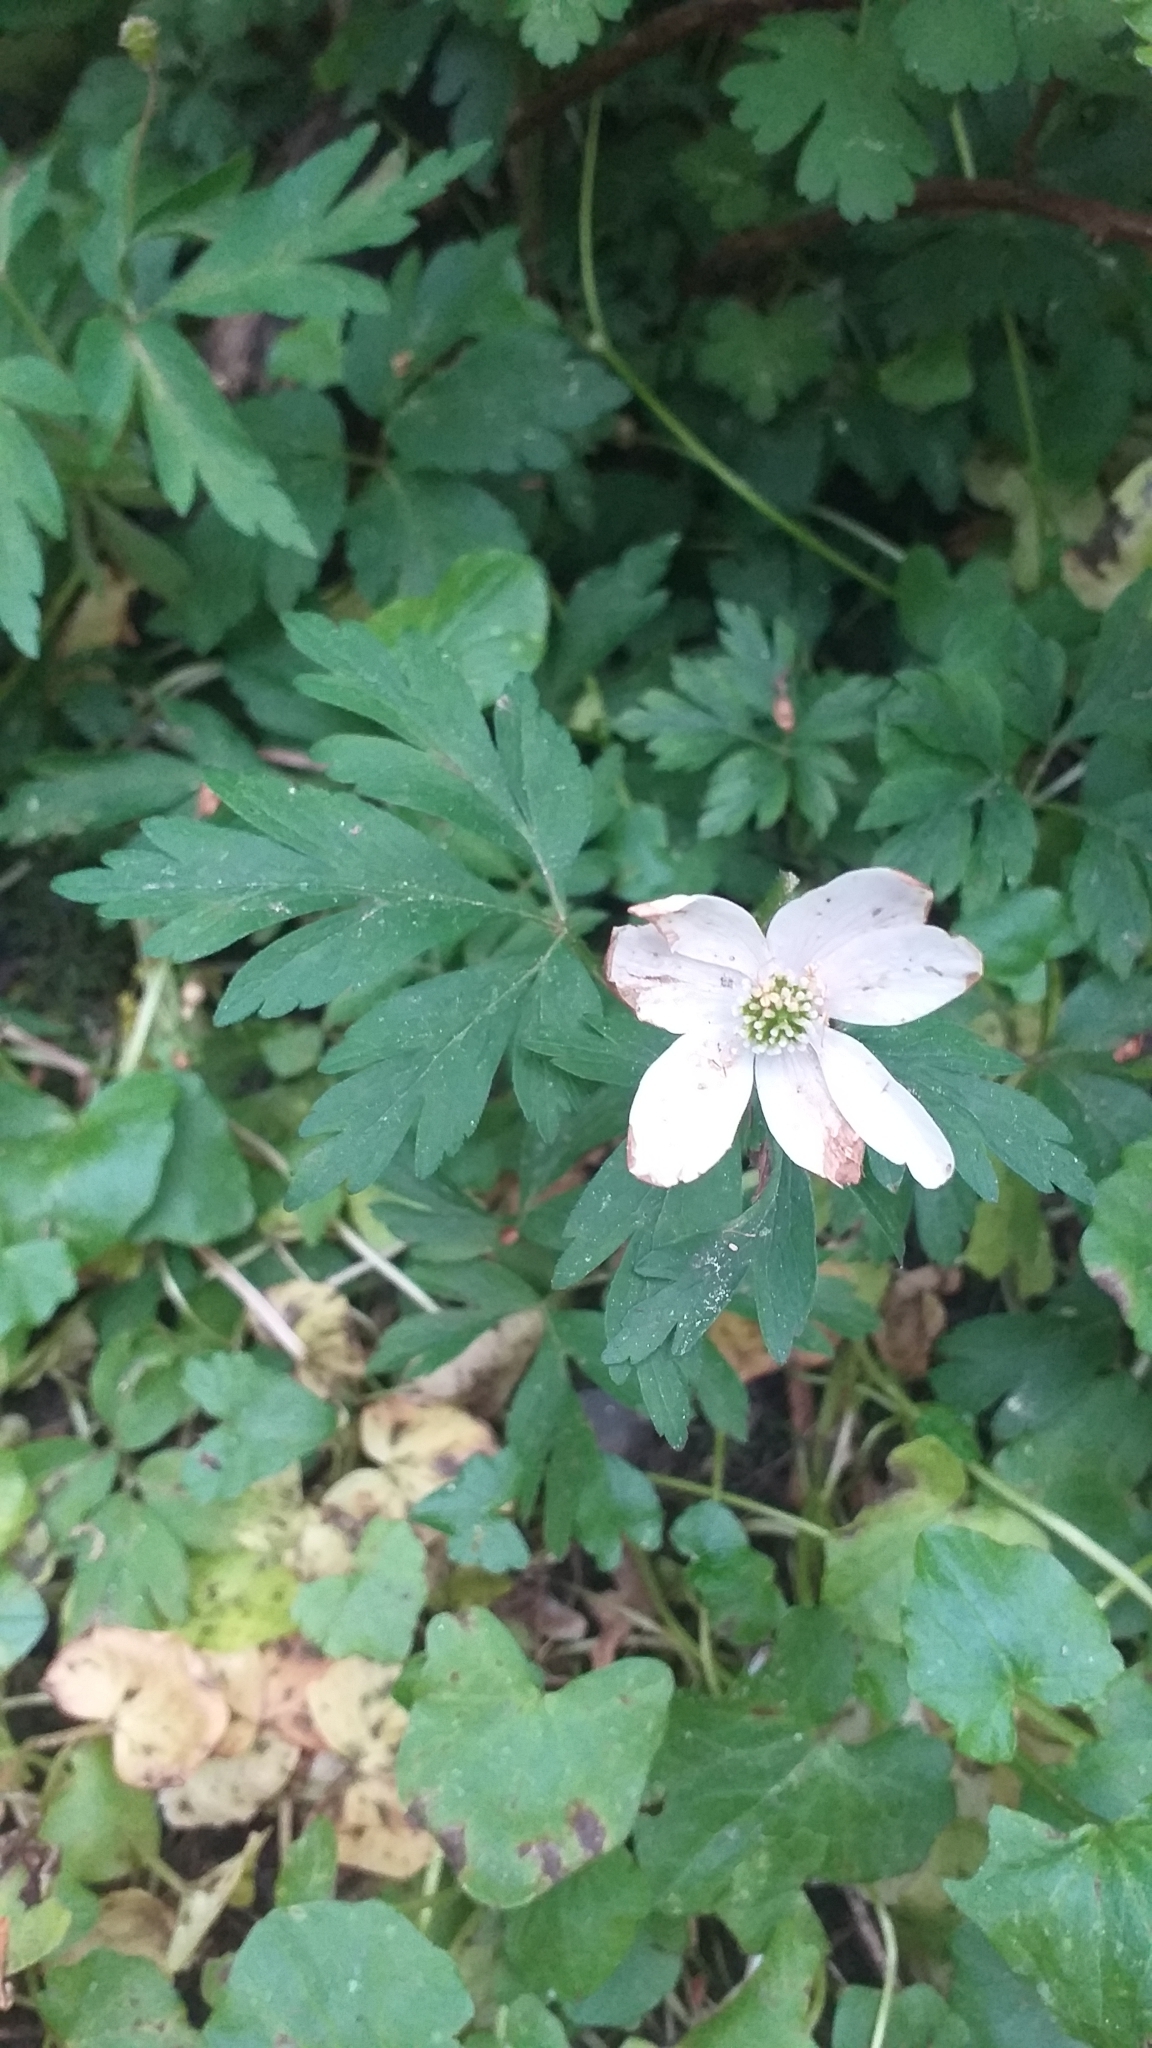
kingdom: Plantae
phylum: Tracheophyta
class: Magnoliopsida
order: Ranunculales
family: Ranunculaceae
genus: Anemone
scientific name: Anemone nemorosa
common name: Wood anemone
